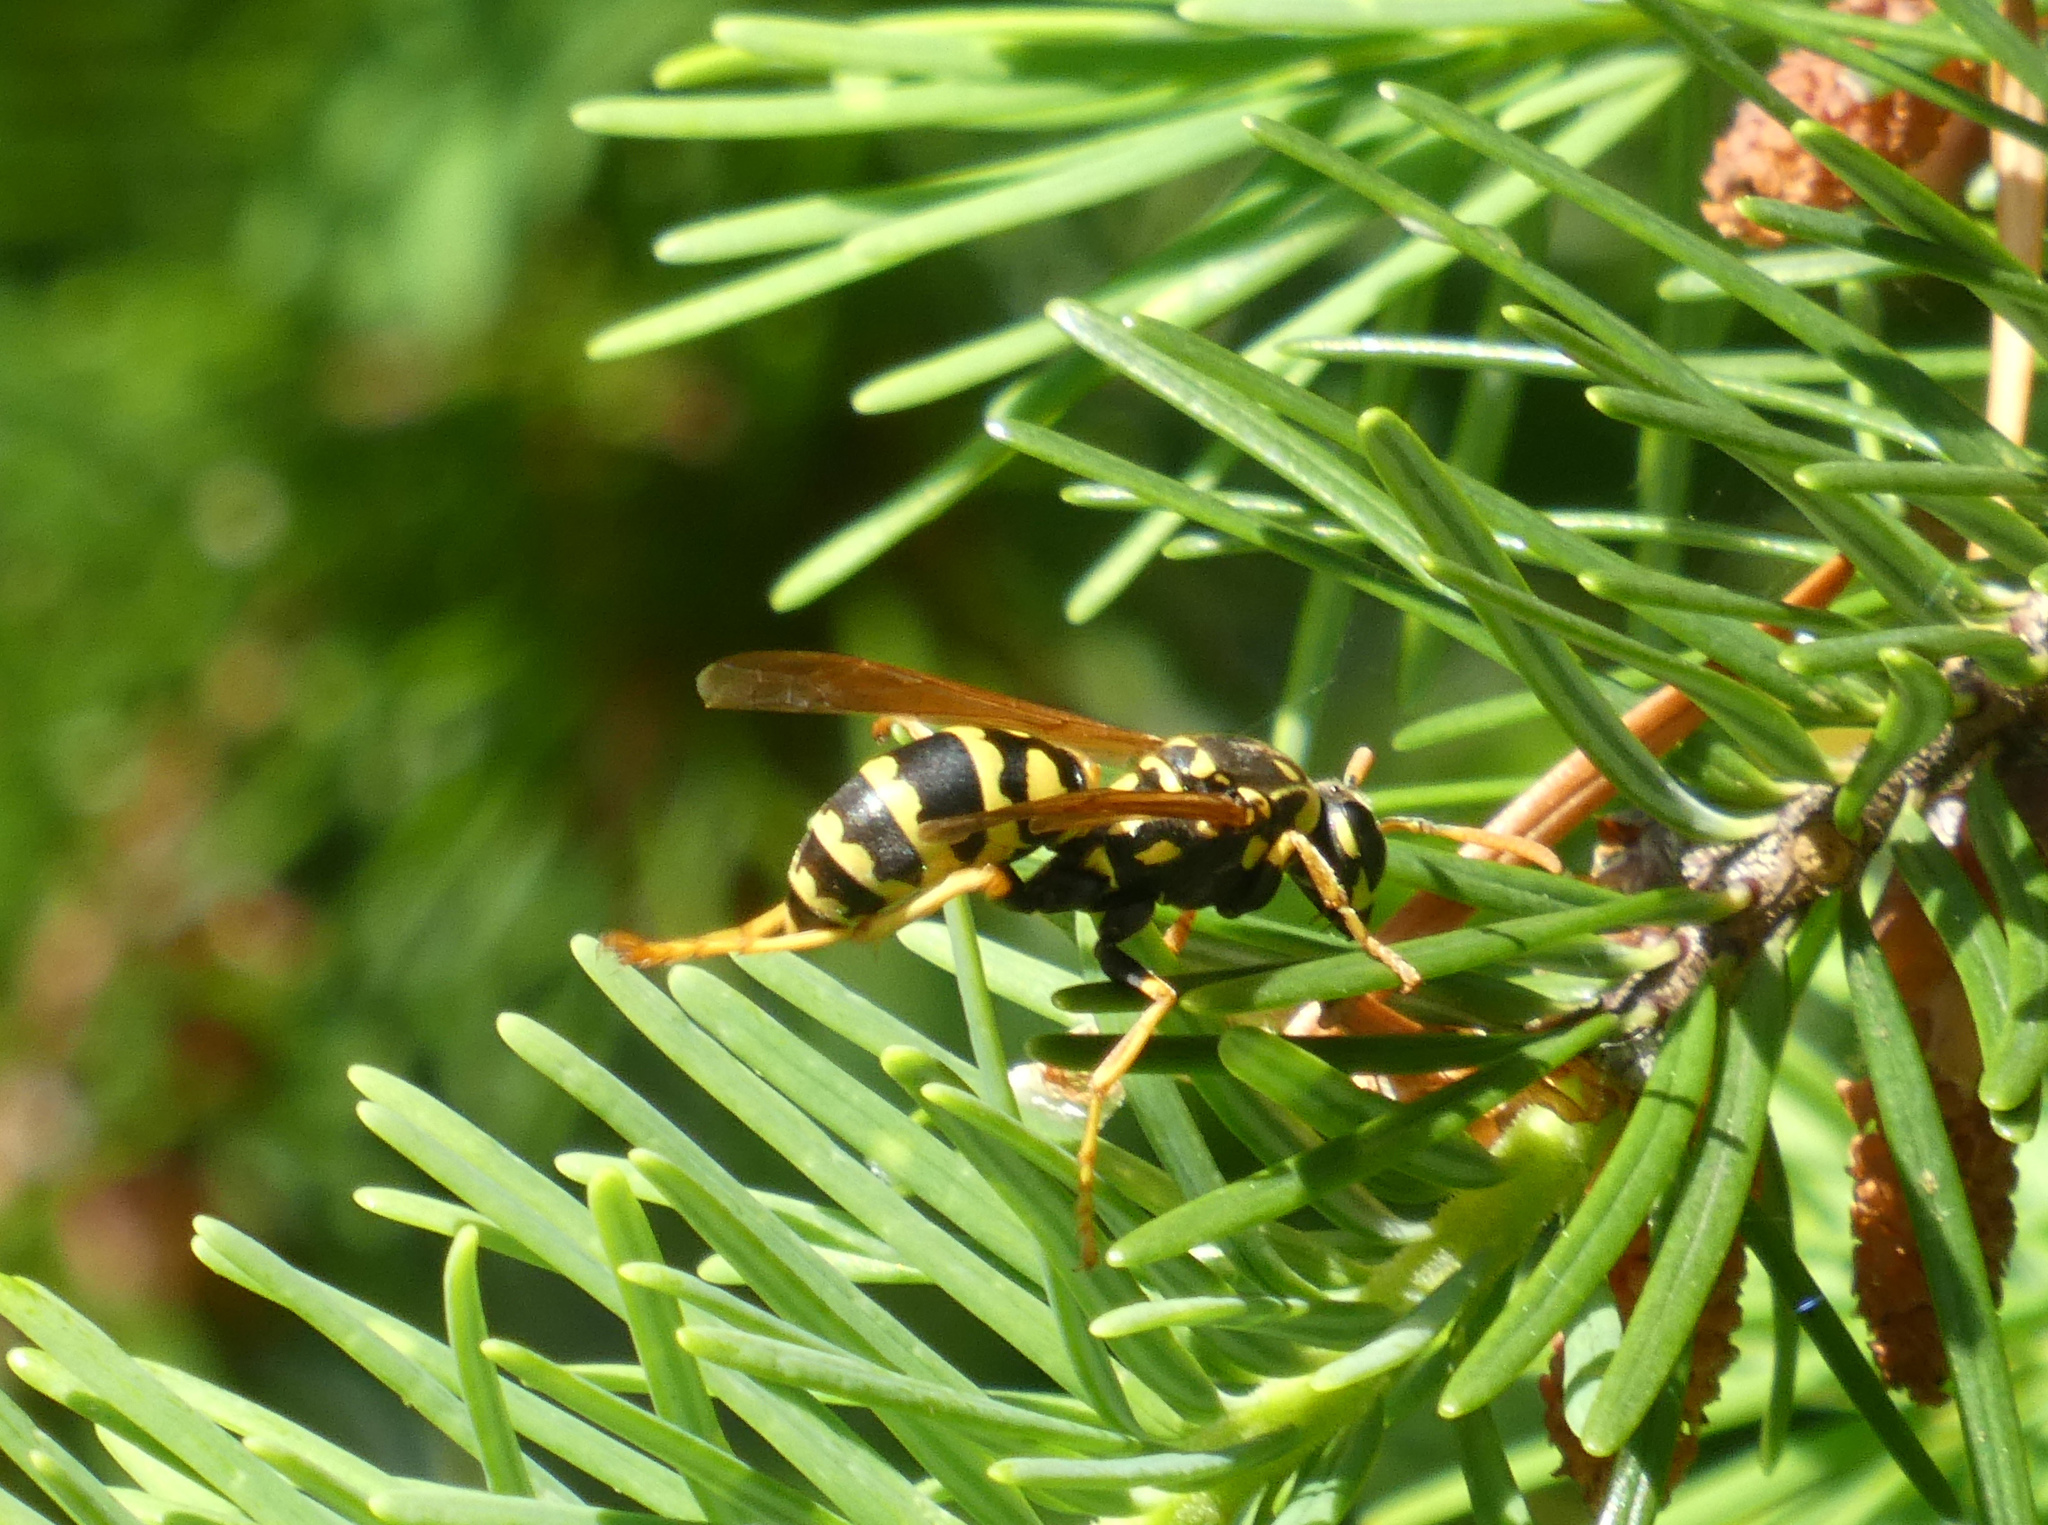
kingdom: Animalia
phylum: Arthropoda
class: Insecta
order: Hymenoptera
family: Eumenidae
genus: Polistes
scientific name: Polistes dominula
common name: Paper wasp
